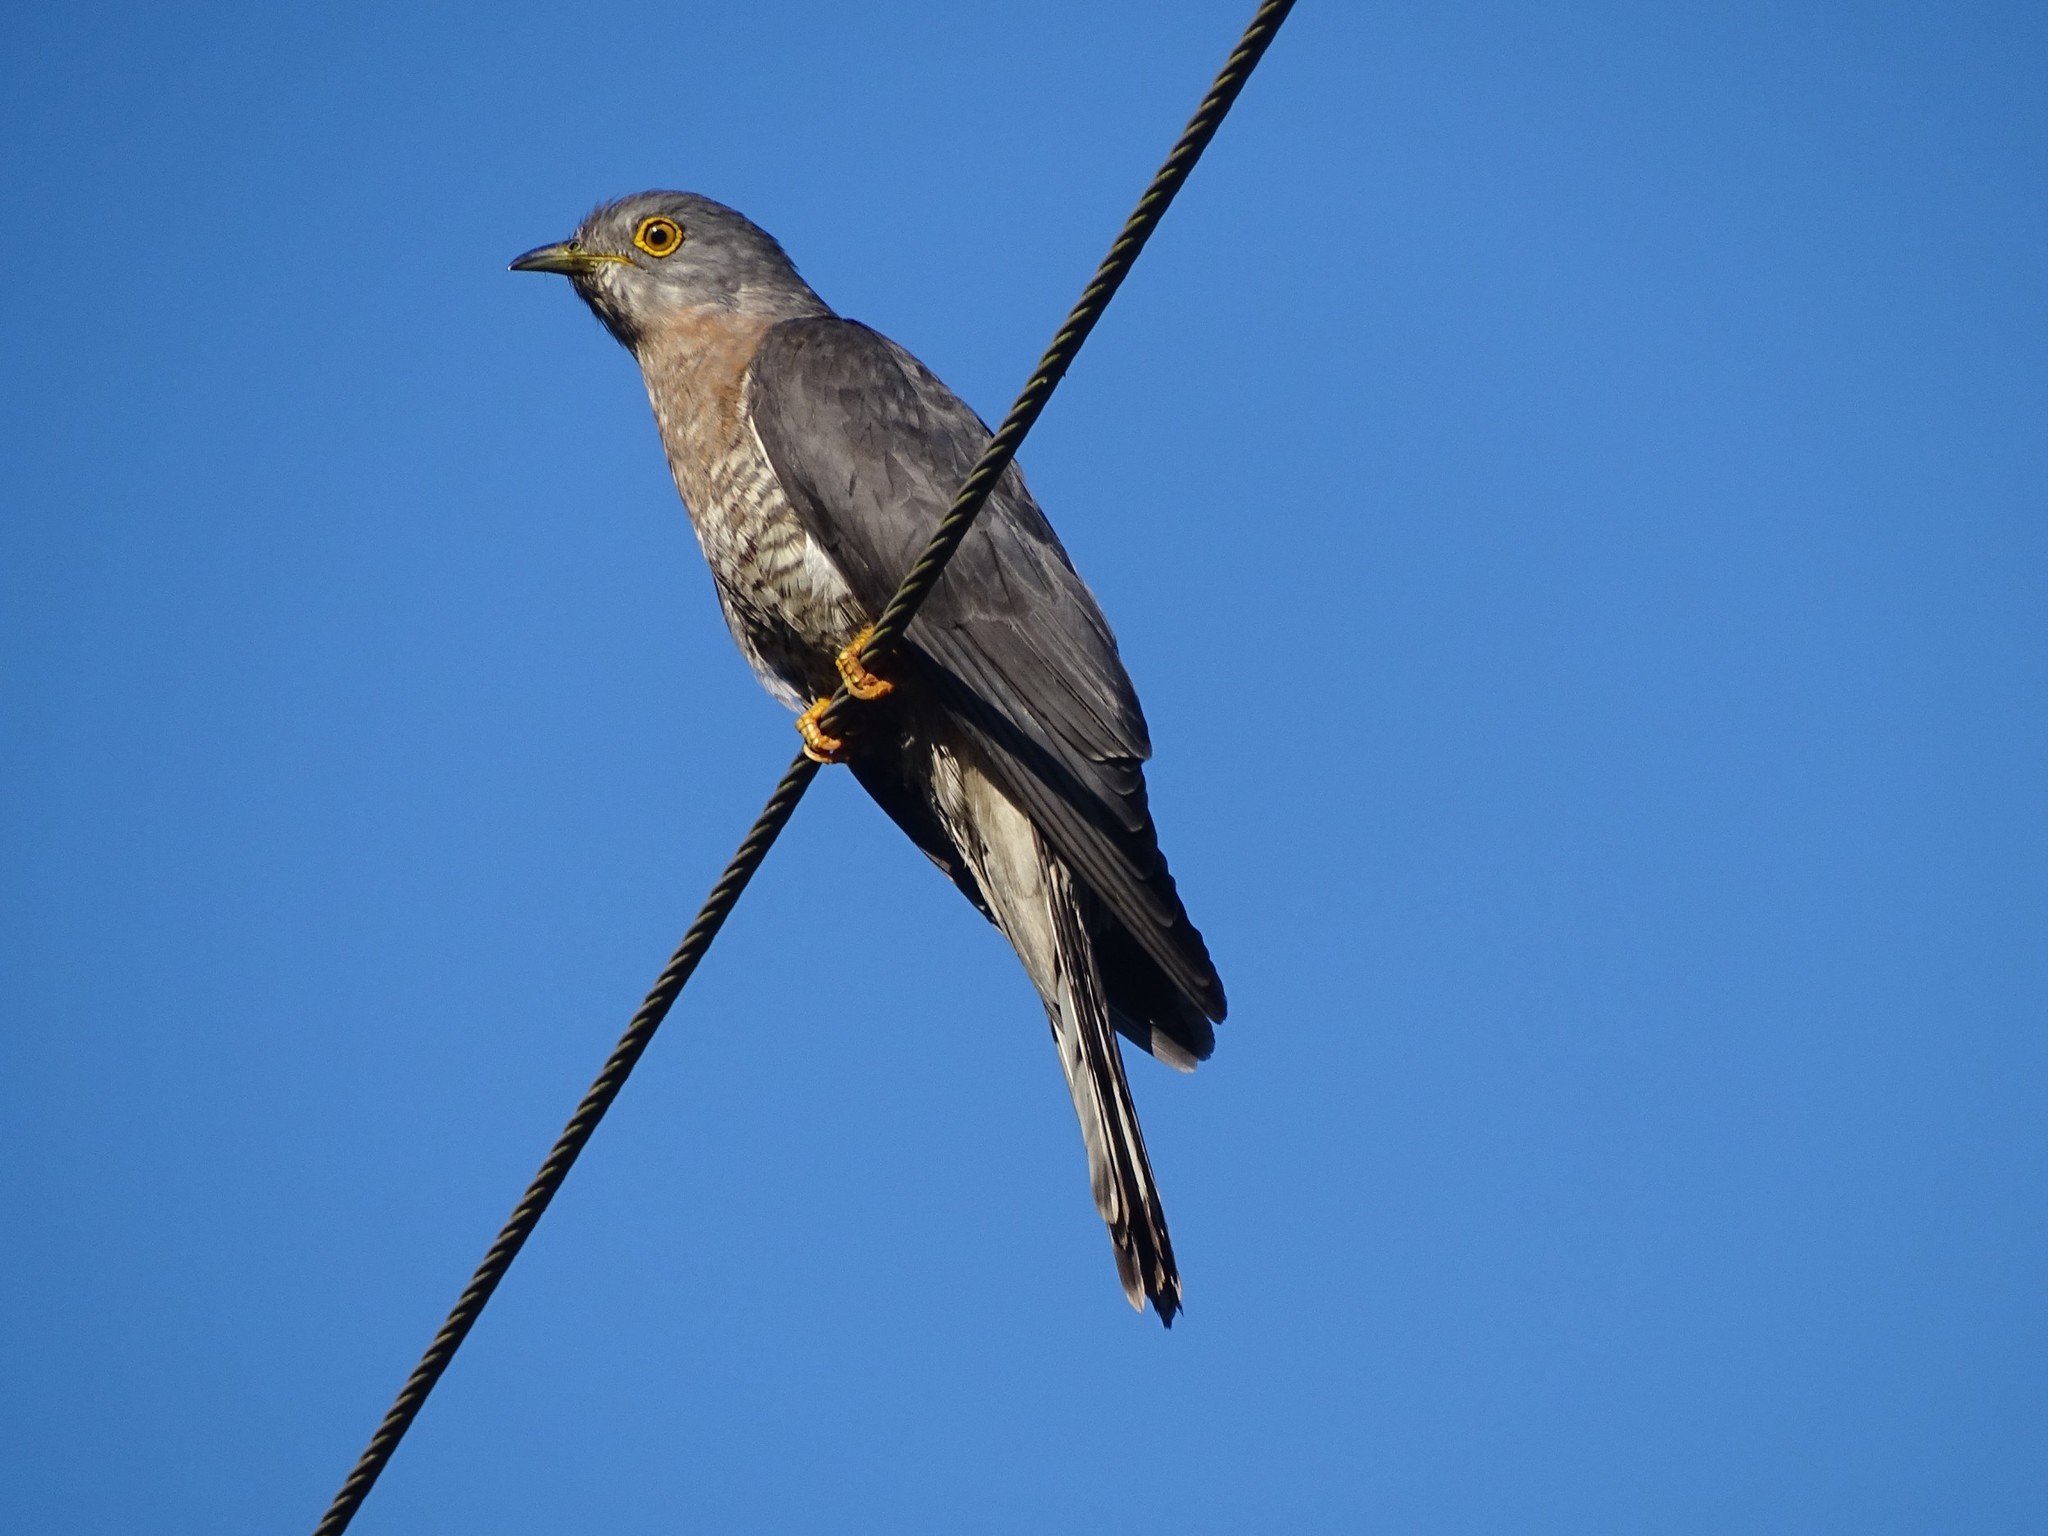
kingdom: Animalia
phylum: Chordata
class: Aves
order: Cuculiformes
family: Cuculidae
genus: Cuculus
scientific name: Cuculus varius
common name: Common hawk cuckoo
